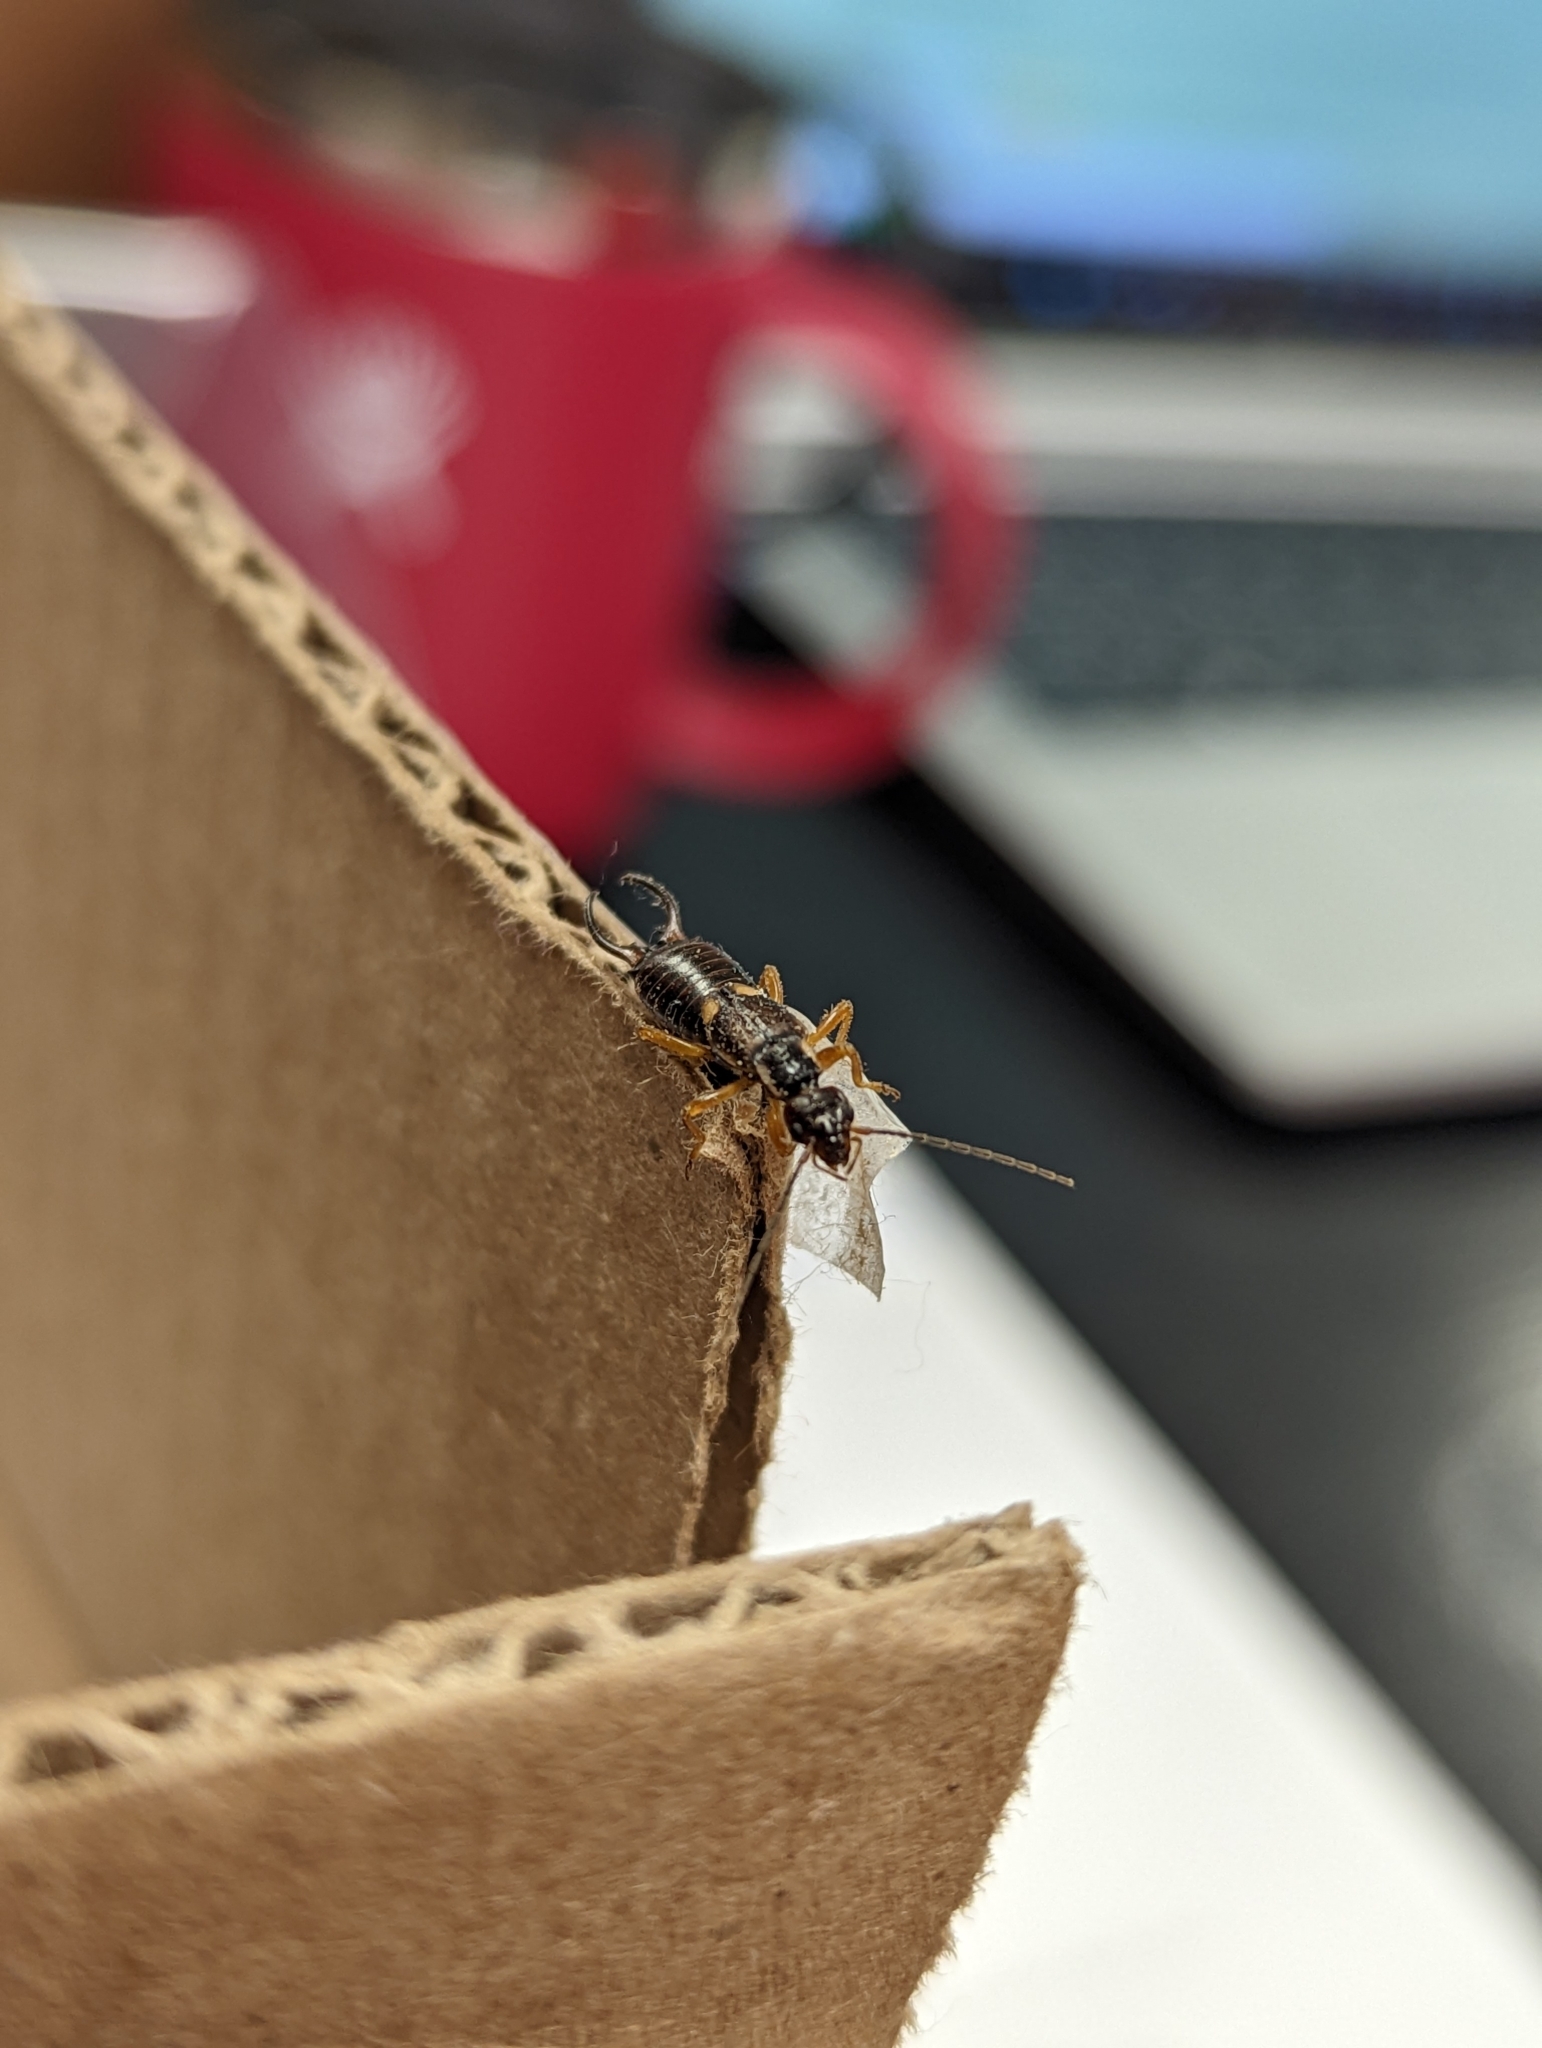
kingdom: Animalia
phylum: Arthropoda
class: Insecta
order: Dermaptera
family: Forficulidae
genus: Forficula
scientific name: Forficula
